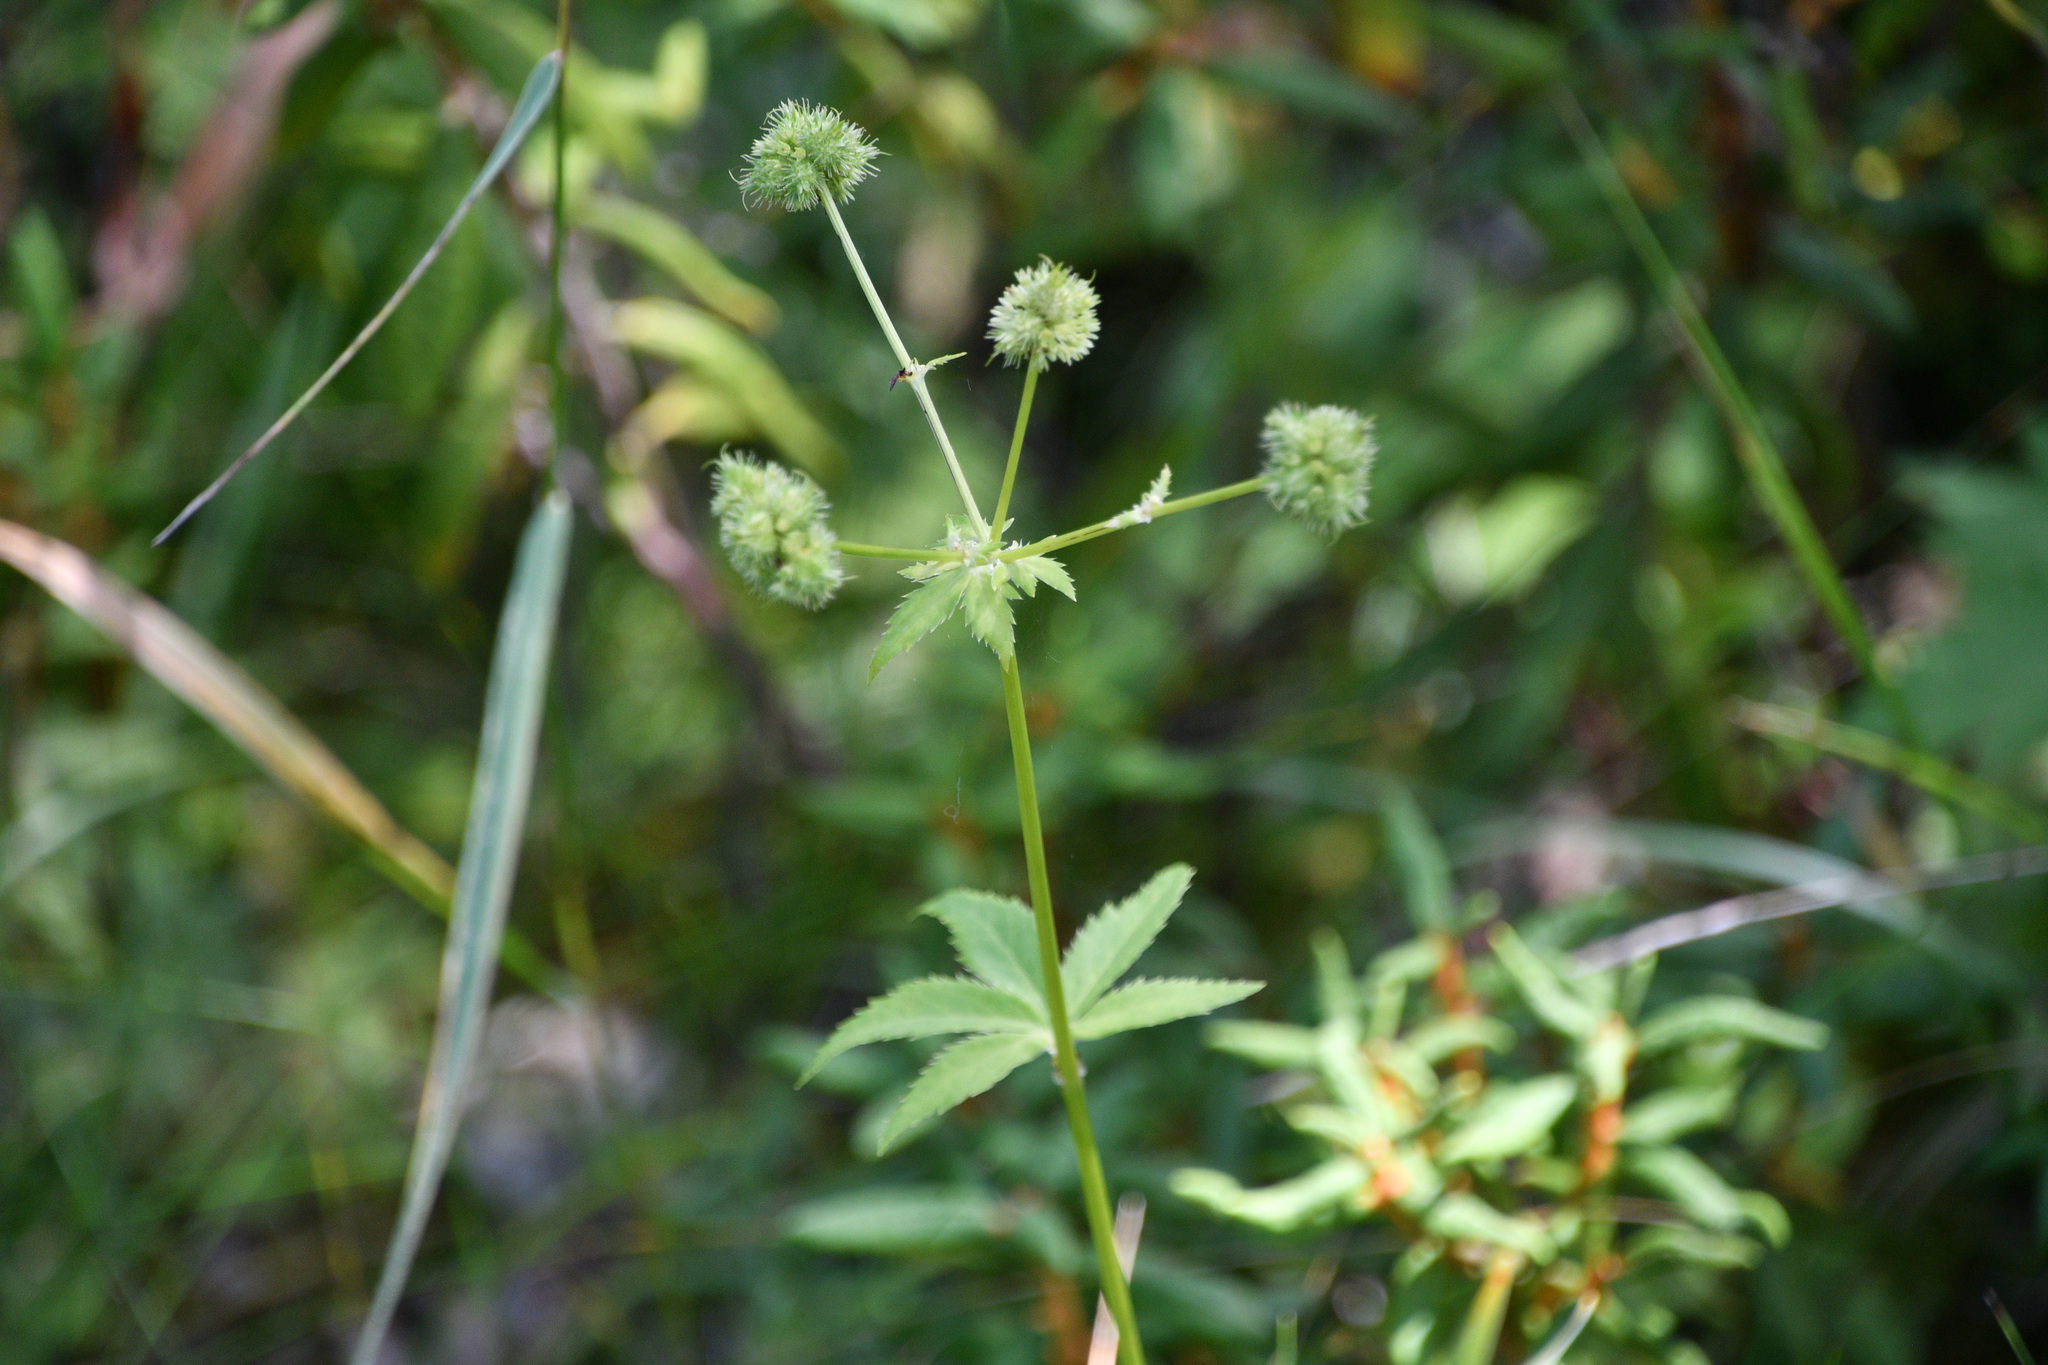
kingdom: Plantae
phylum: Tracheophyta
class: Magnoliopsida
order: Apiales
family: Apiaceae
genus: Sanicula
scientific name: Sanicula marilandica
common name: Black snakeroot
